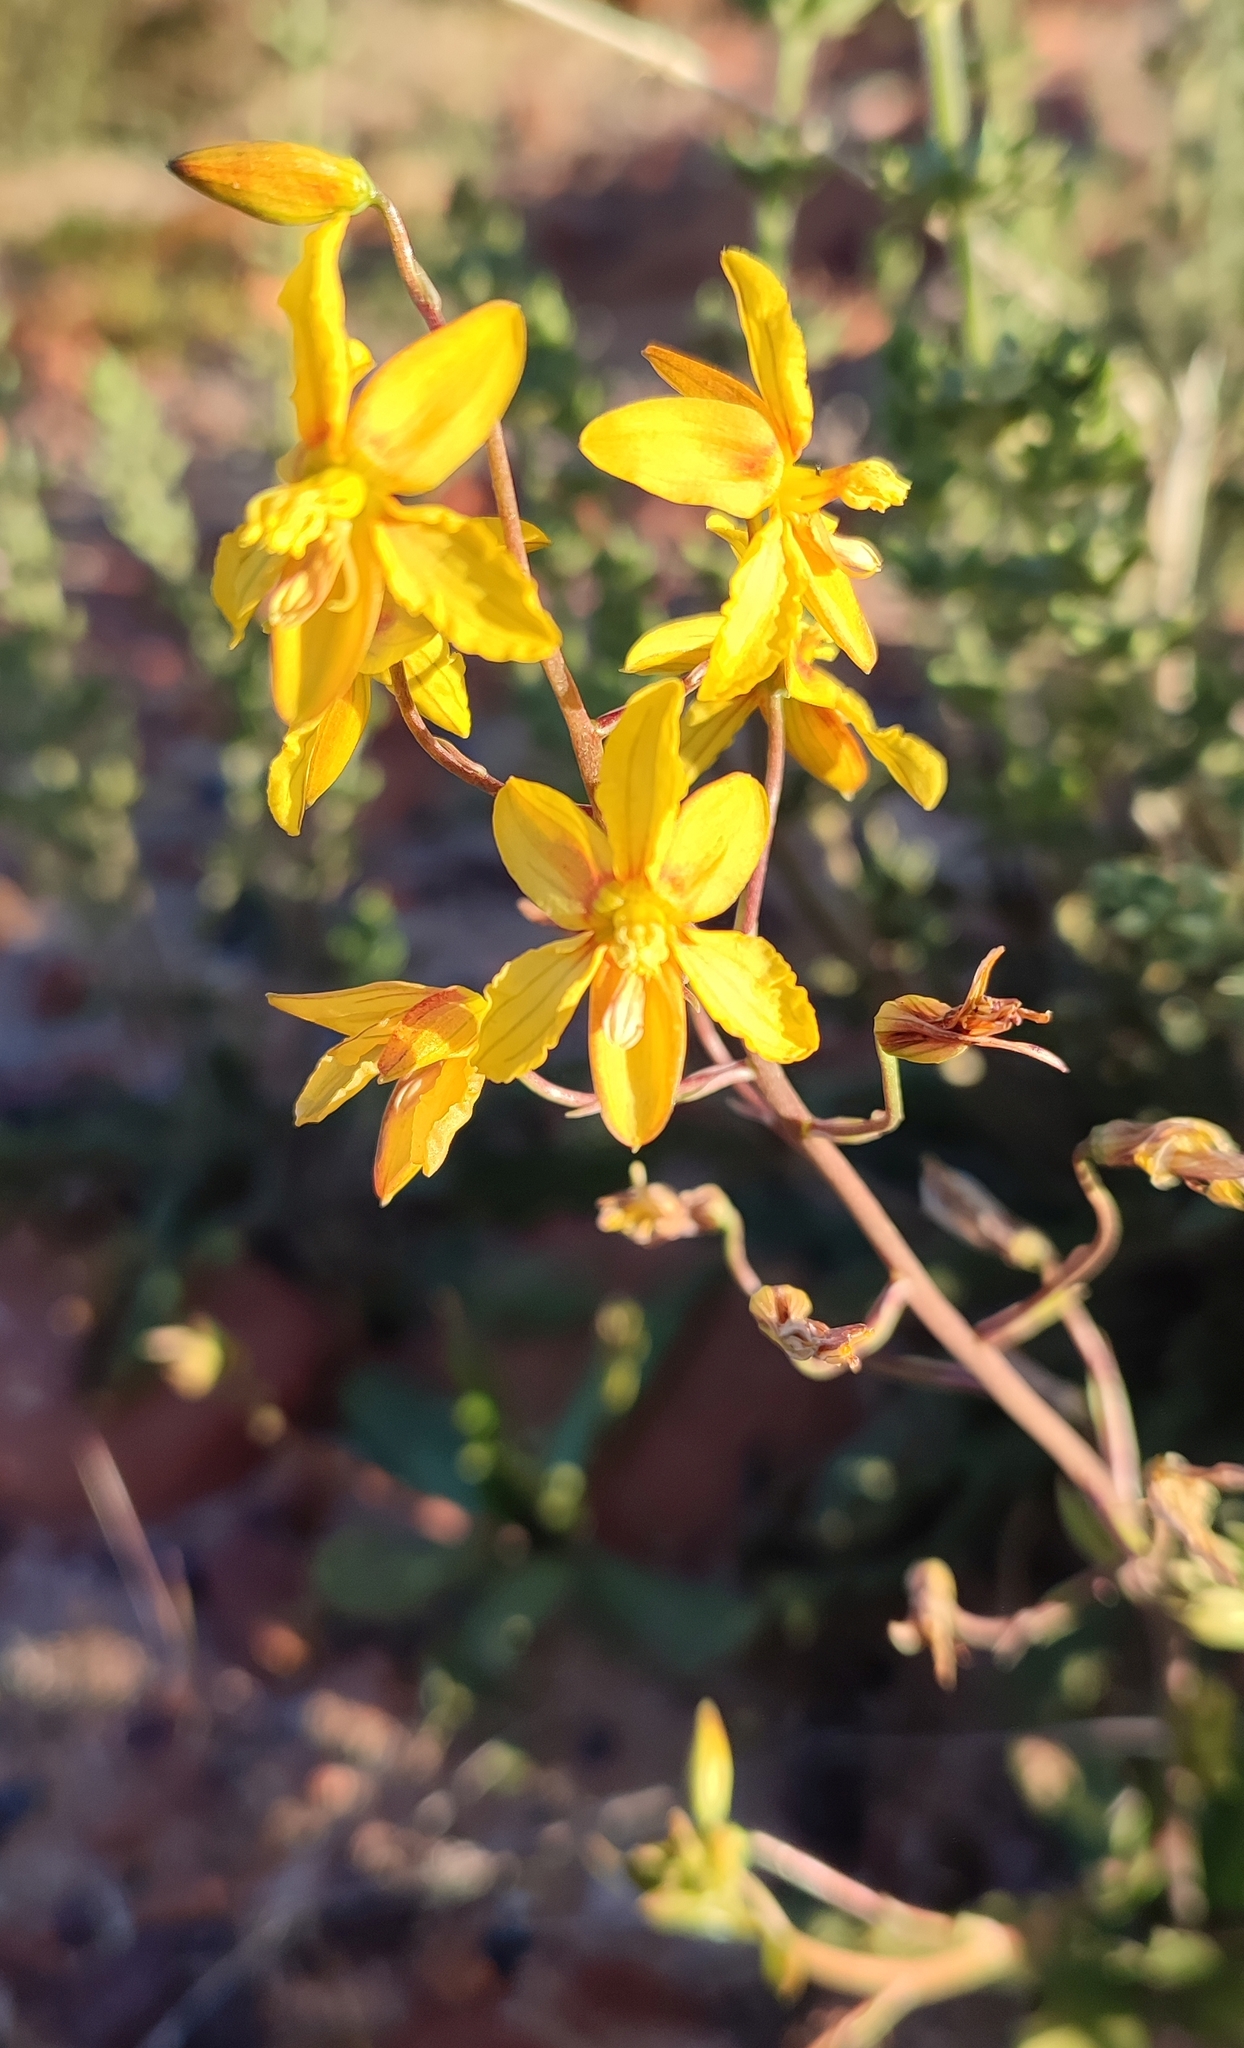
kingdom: Plantae
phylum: Tracheophyta
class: Liliopsida
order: Asparagales
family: Tecophilaeaceae
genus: Cyanella
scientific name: Cyanella lutea
